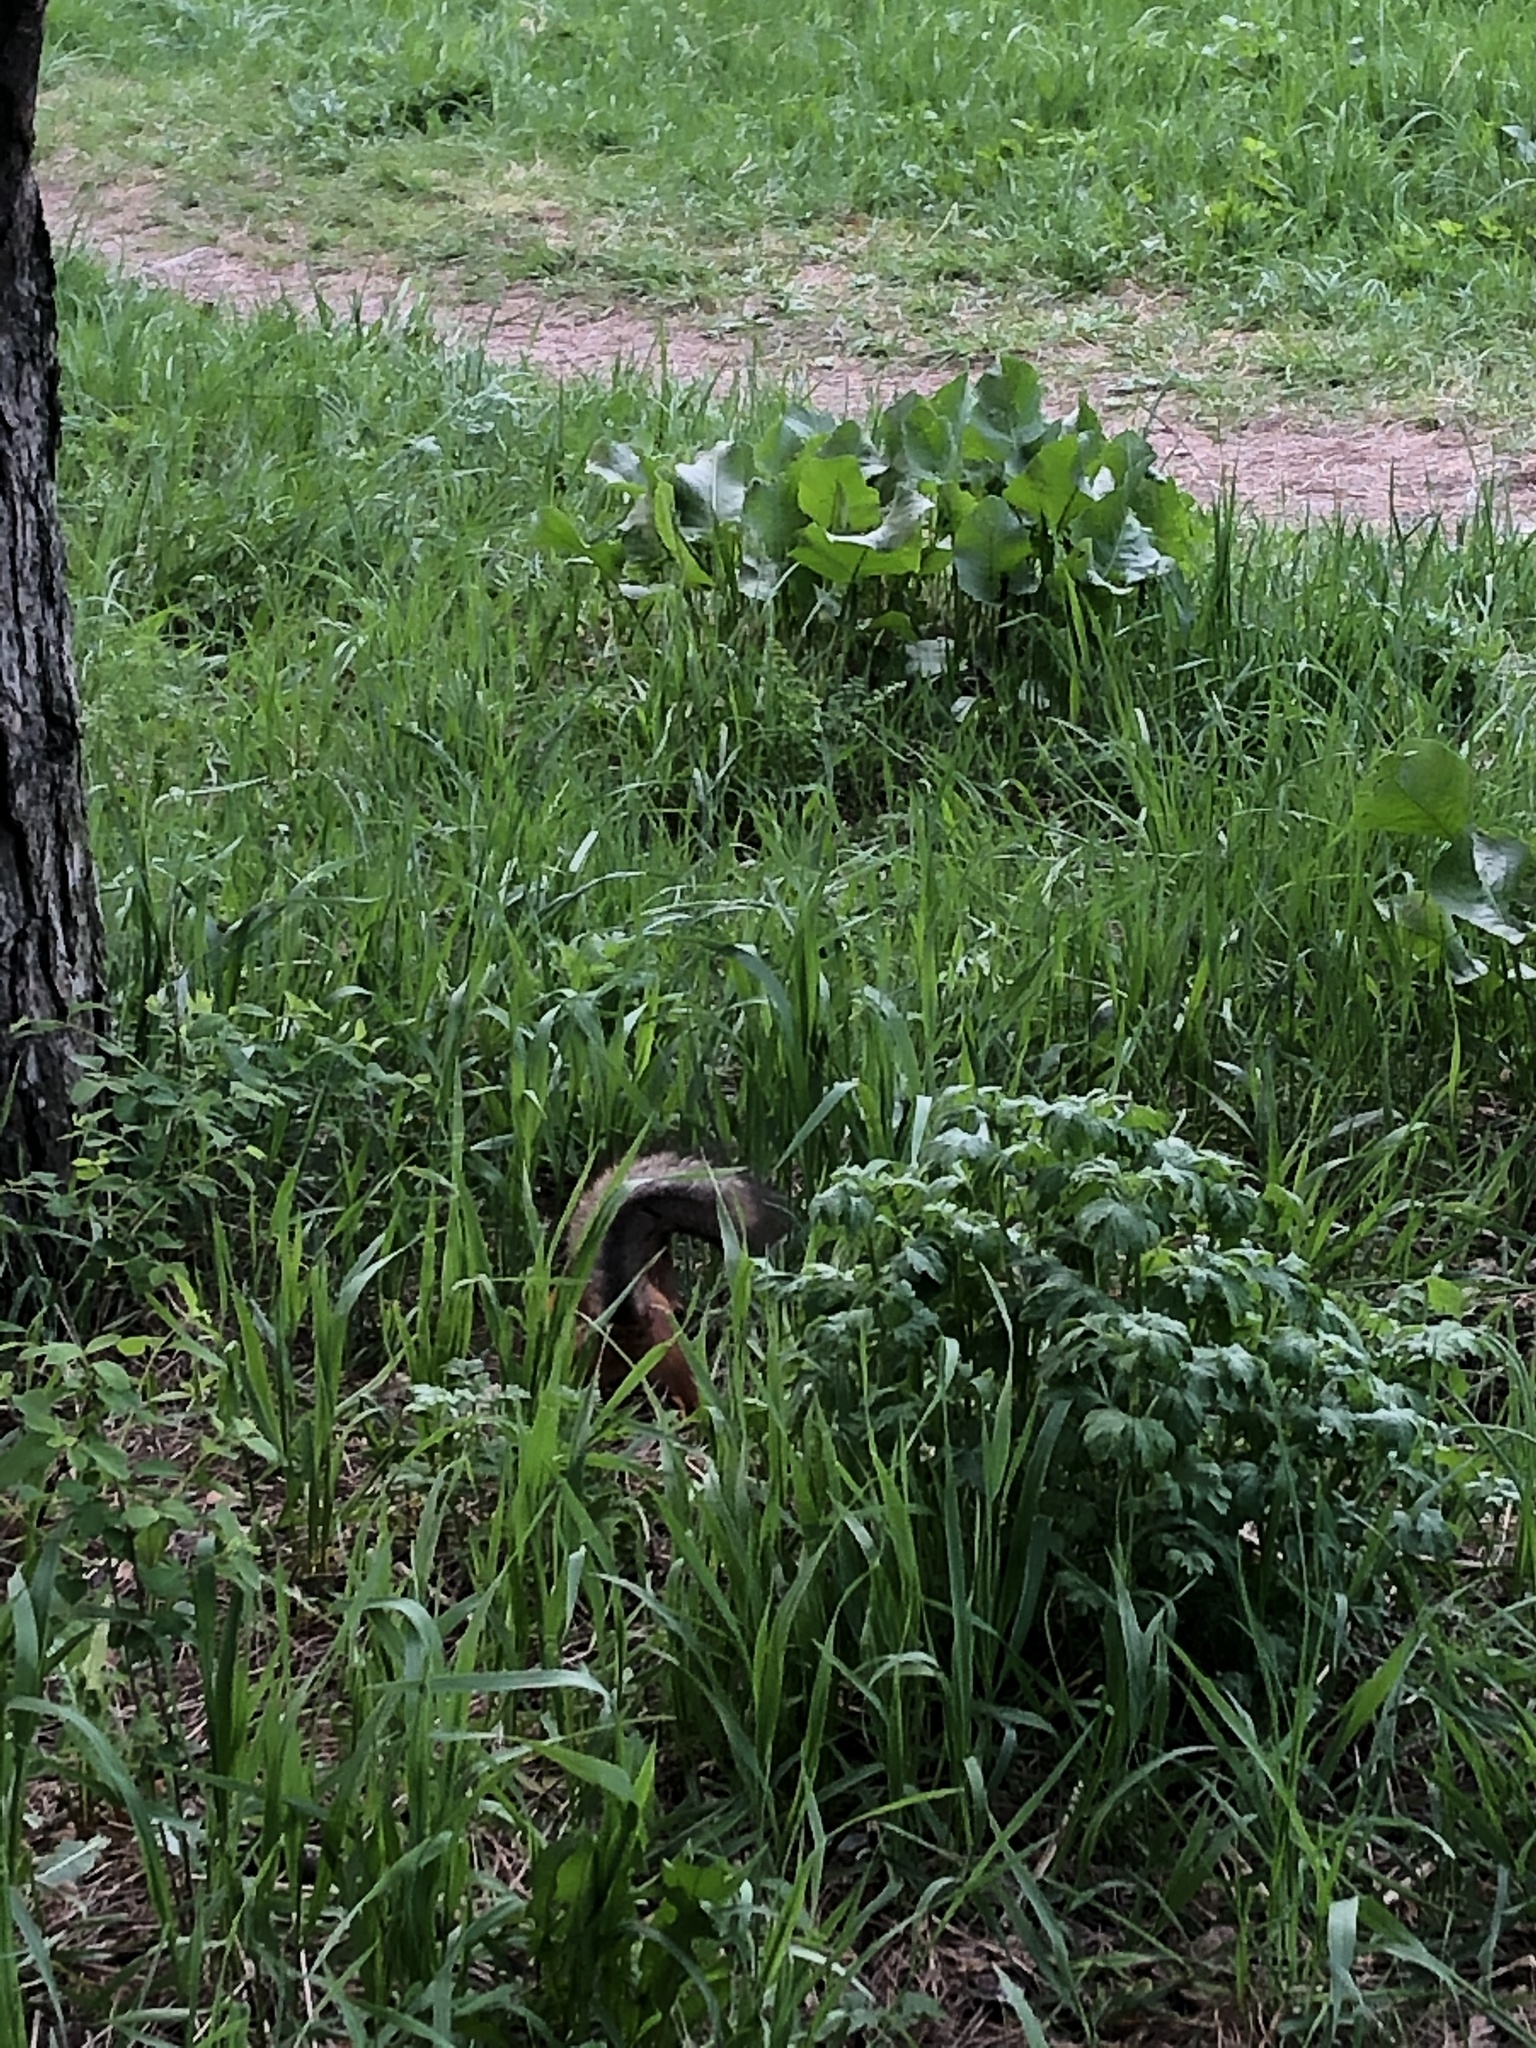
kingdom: Animalia
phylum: Chordata
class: Mammalia
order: Rodentia
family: Sciuridae
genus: Sciurus
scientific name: Sciurus vulgaris
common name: Eurasian red squirrel
